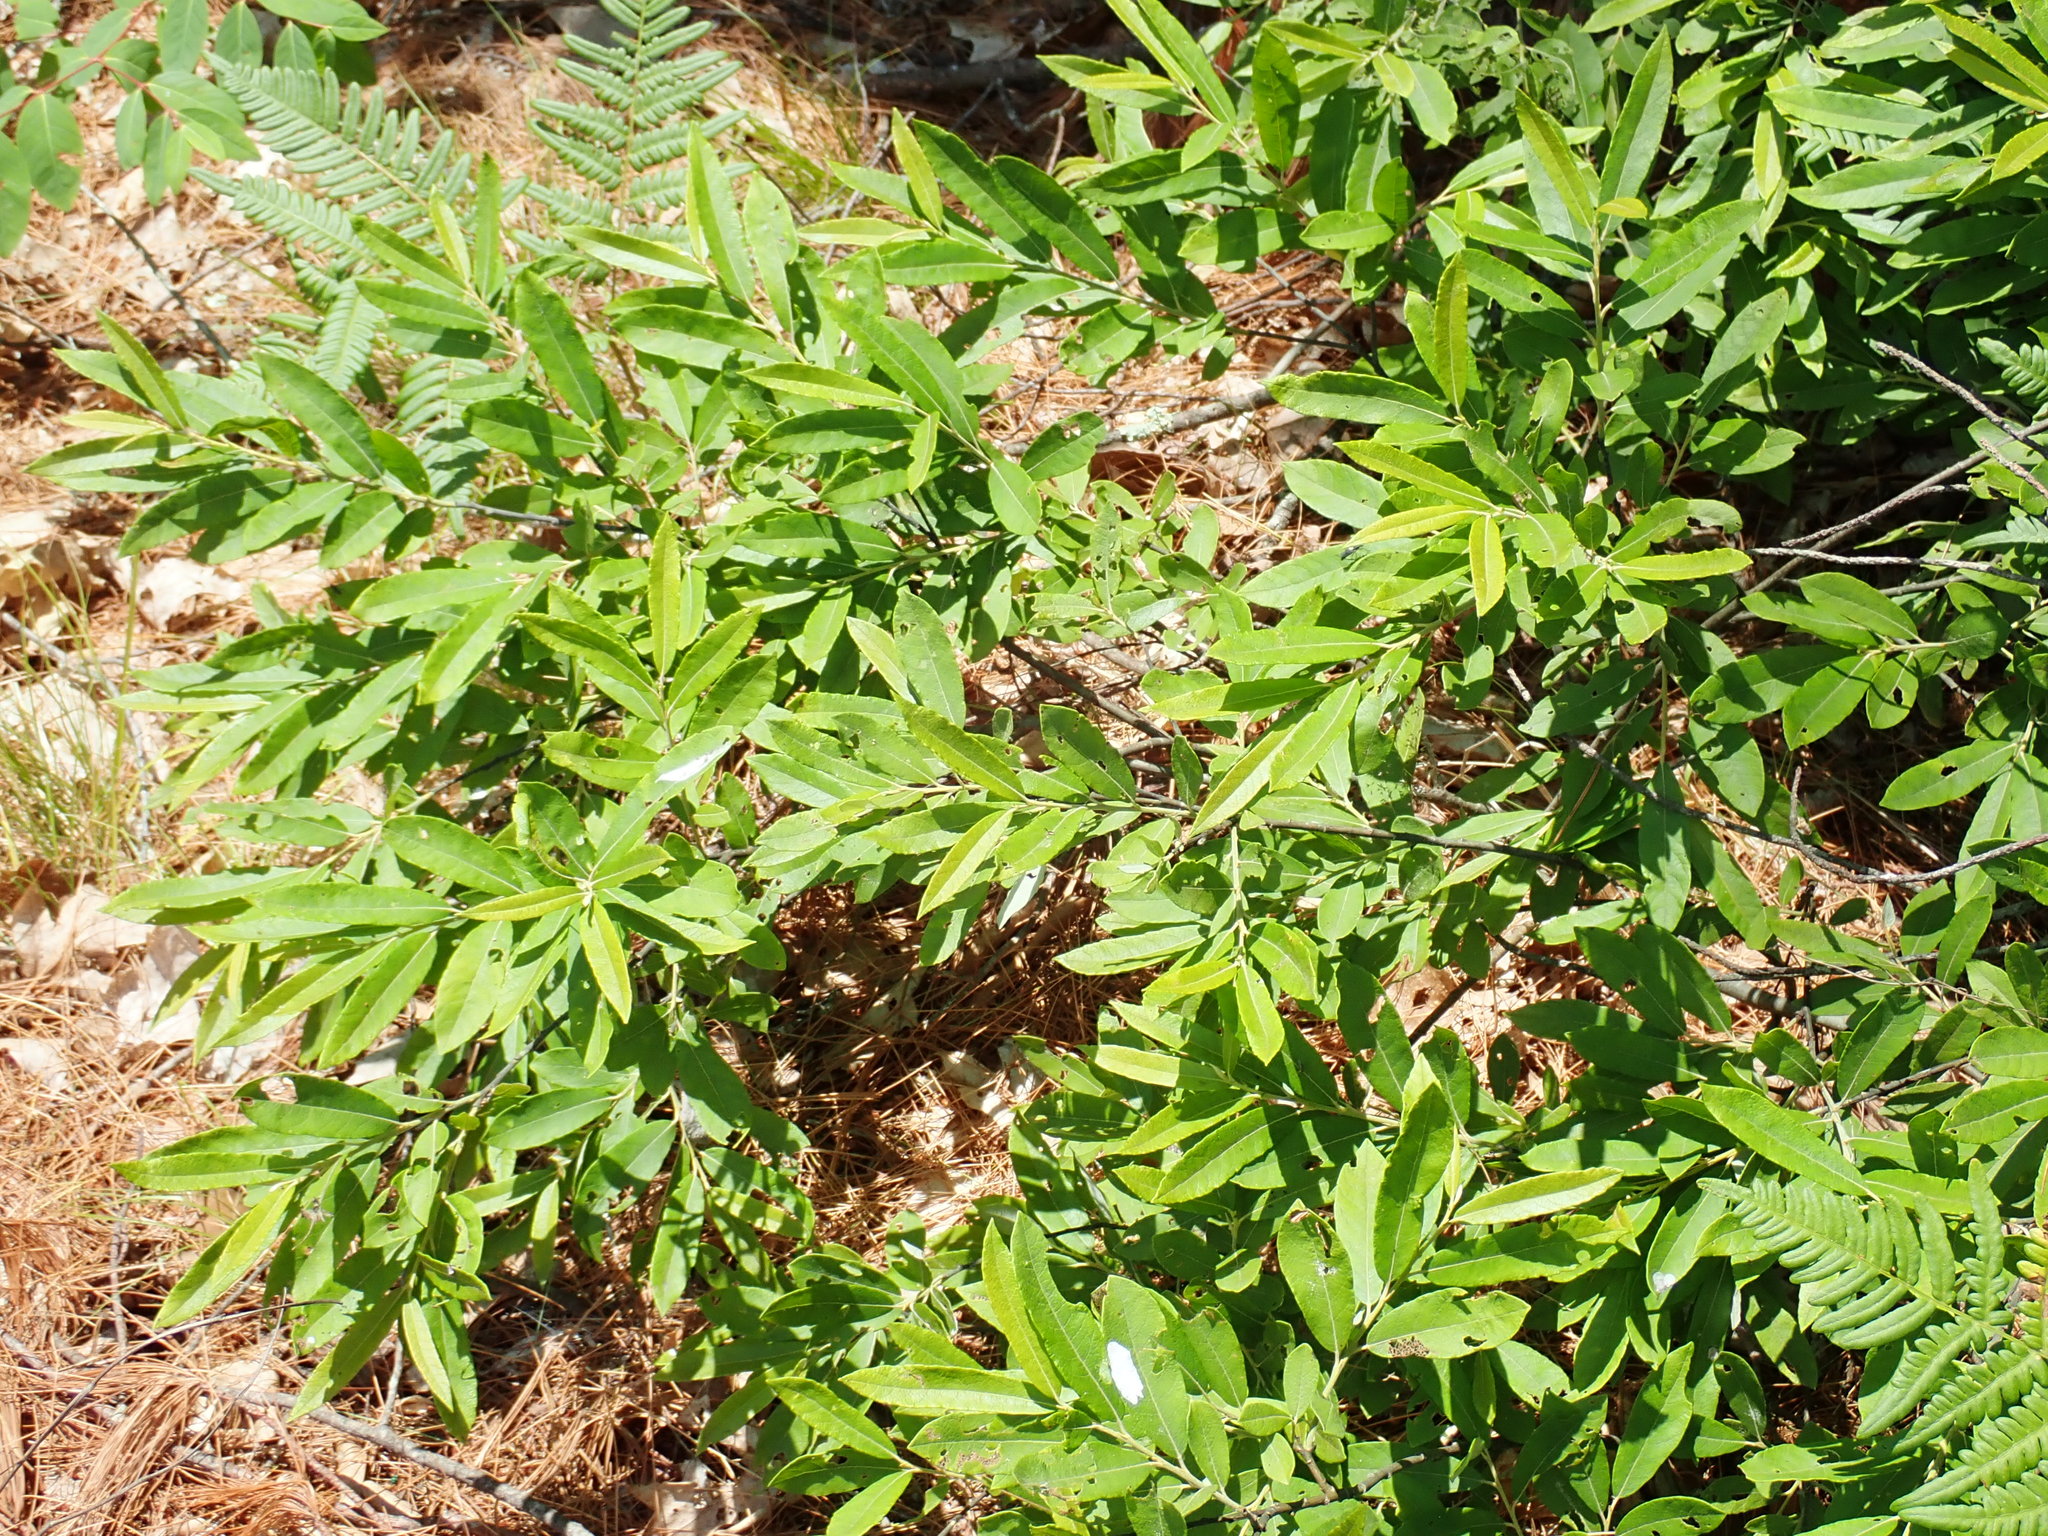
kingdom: Plantae
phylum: Tracheophyta
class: Magnoliopsida
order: Malpighiales
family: Salicaceae
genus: Salix
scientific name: Salix humilis
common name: Prairie willow
